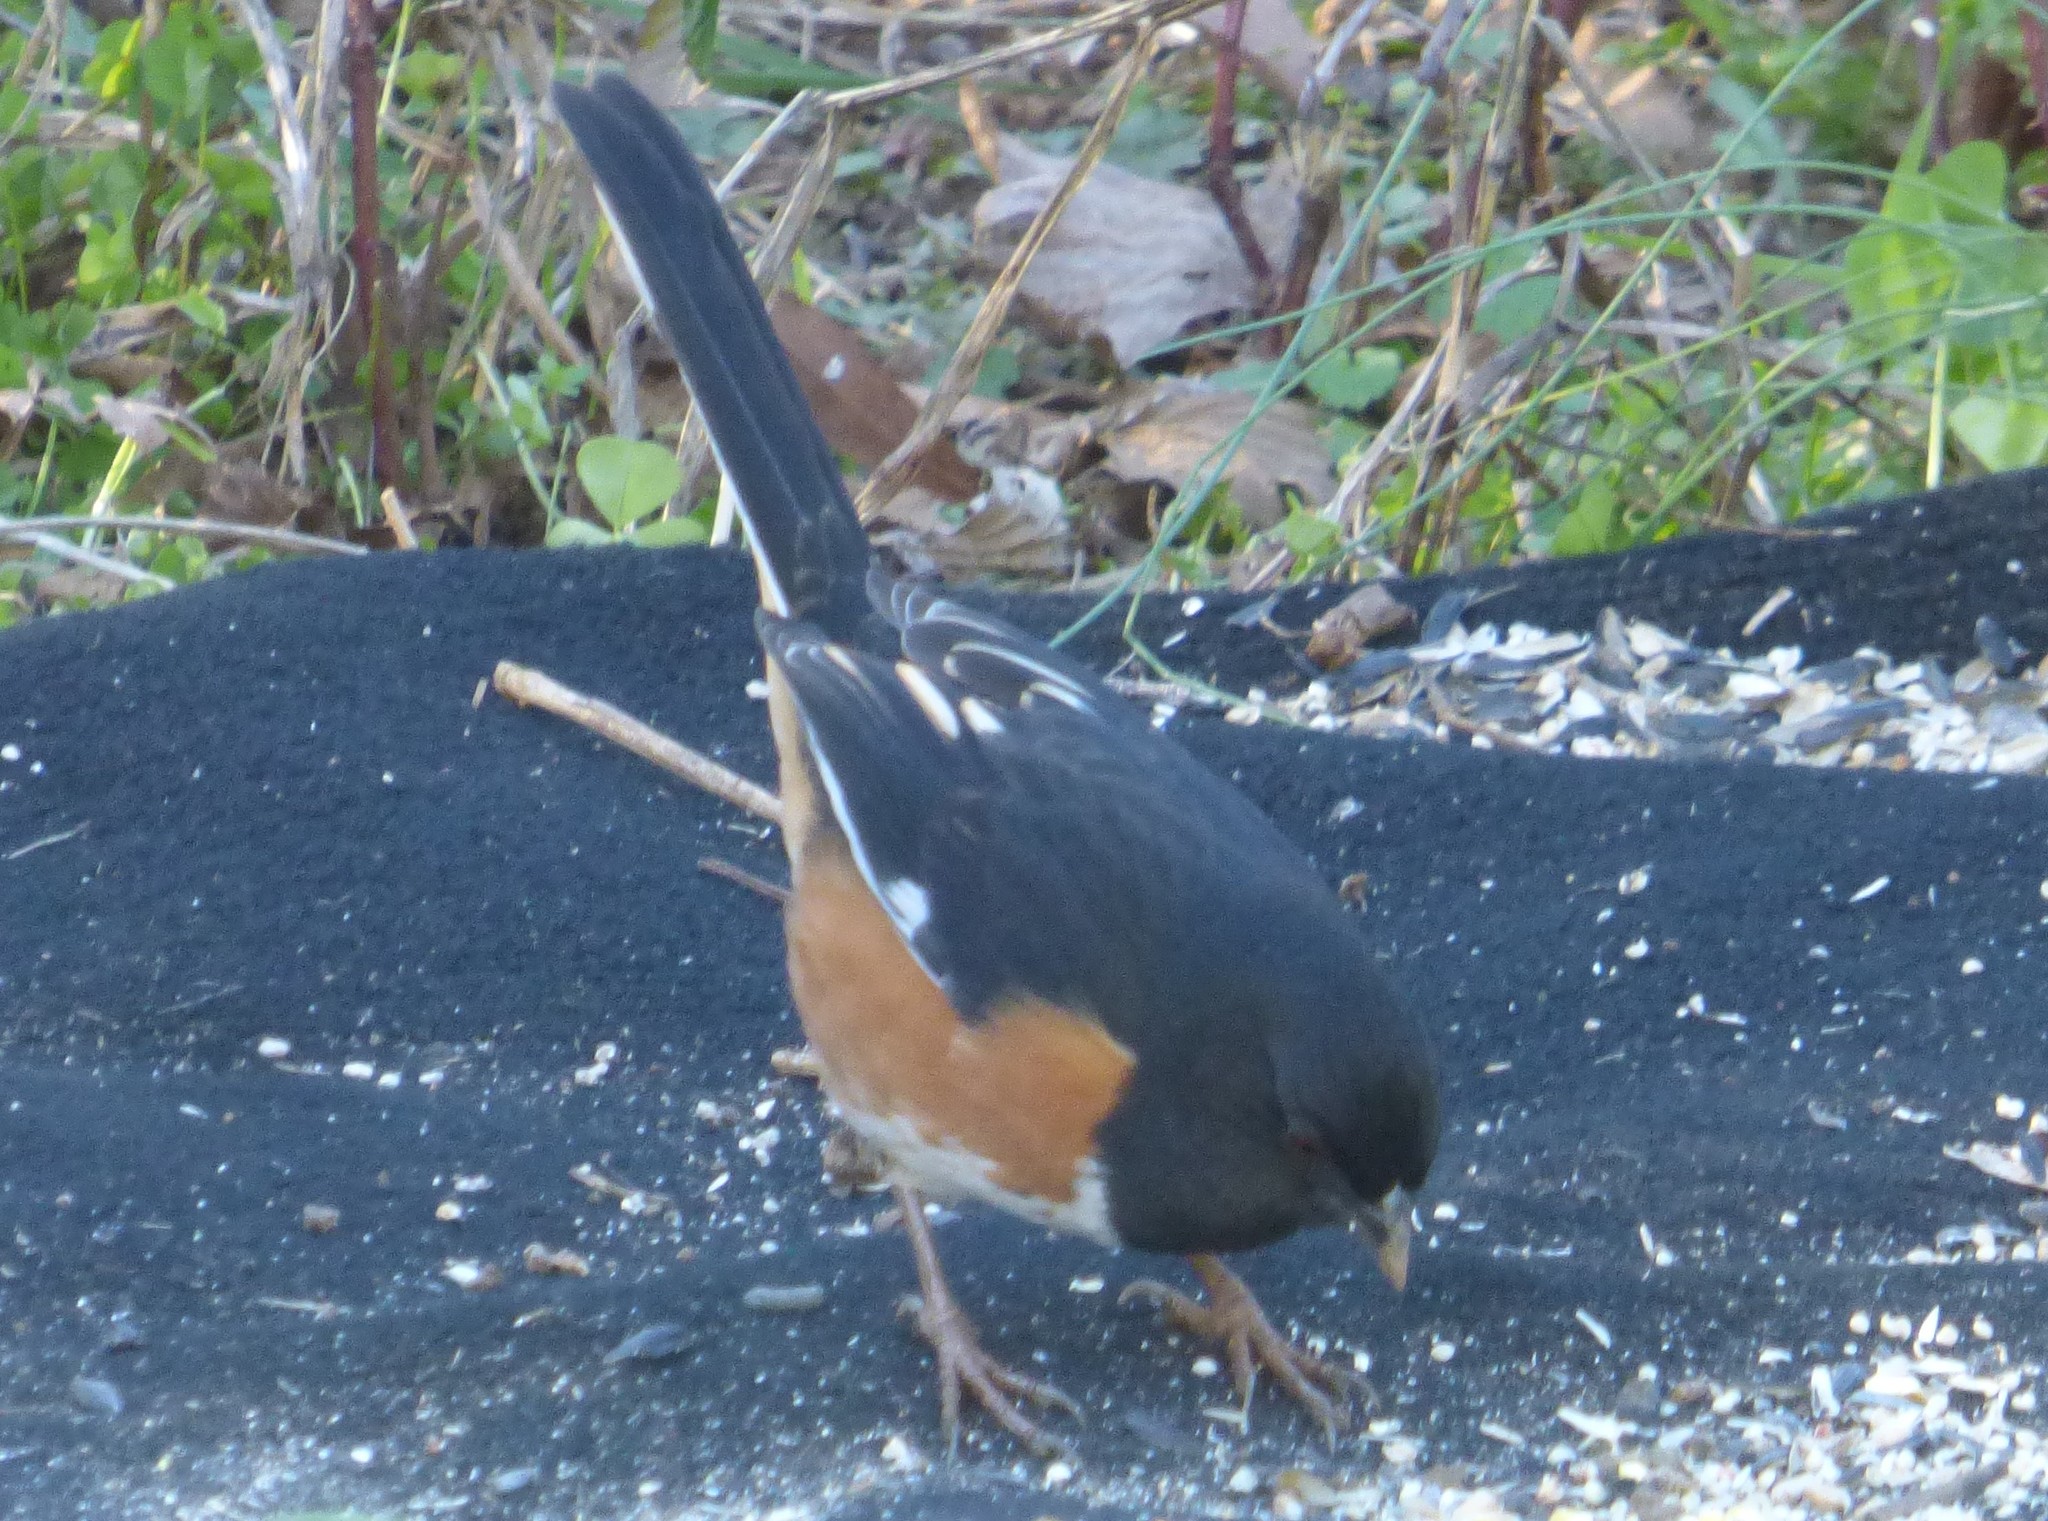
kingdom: Animalia
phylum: Chordata
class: Aves
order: Passeriformes
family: Passerellidae
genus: Pipilo
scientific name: Pipilo erythrophthalmus
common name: Eastern towhee
